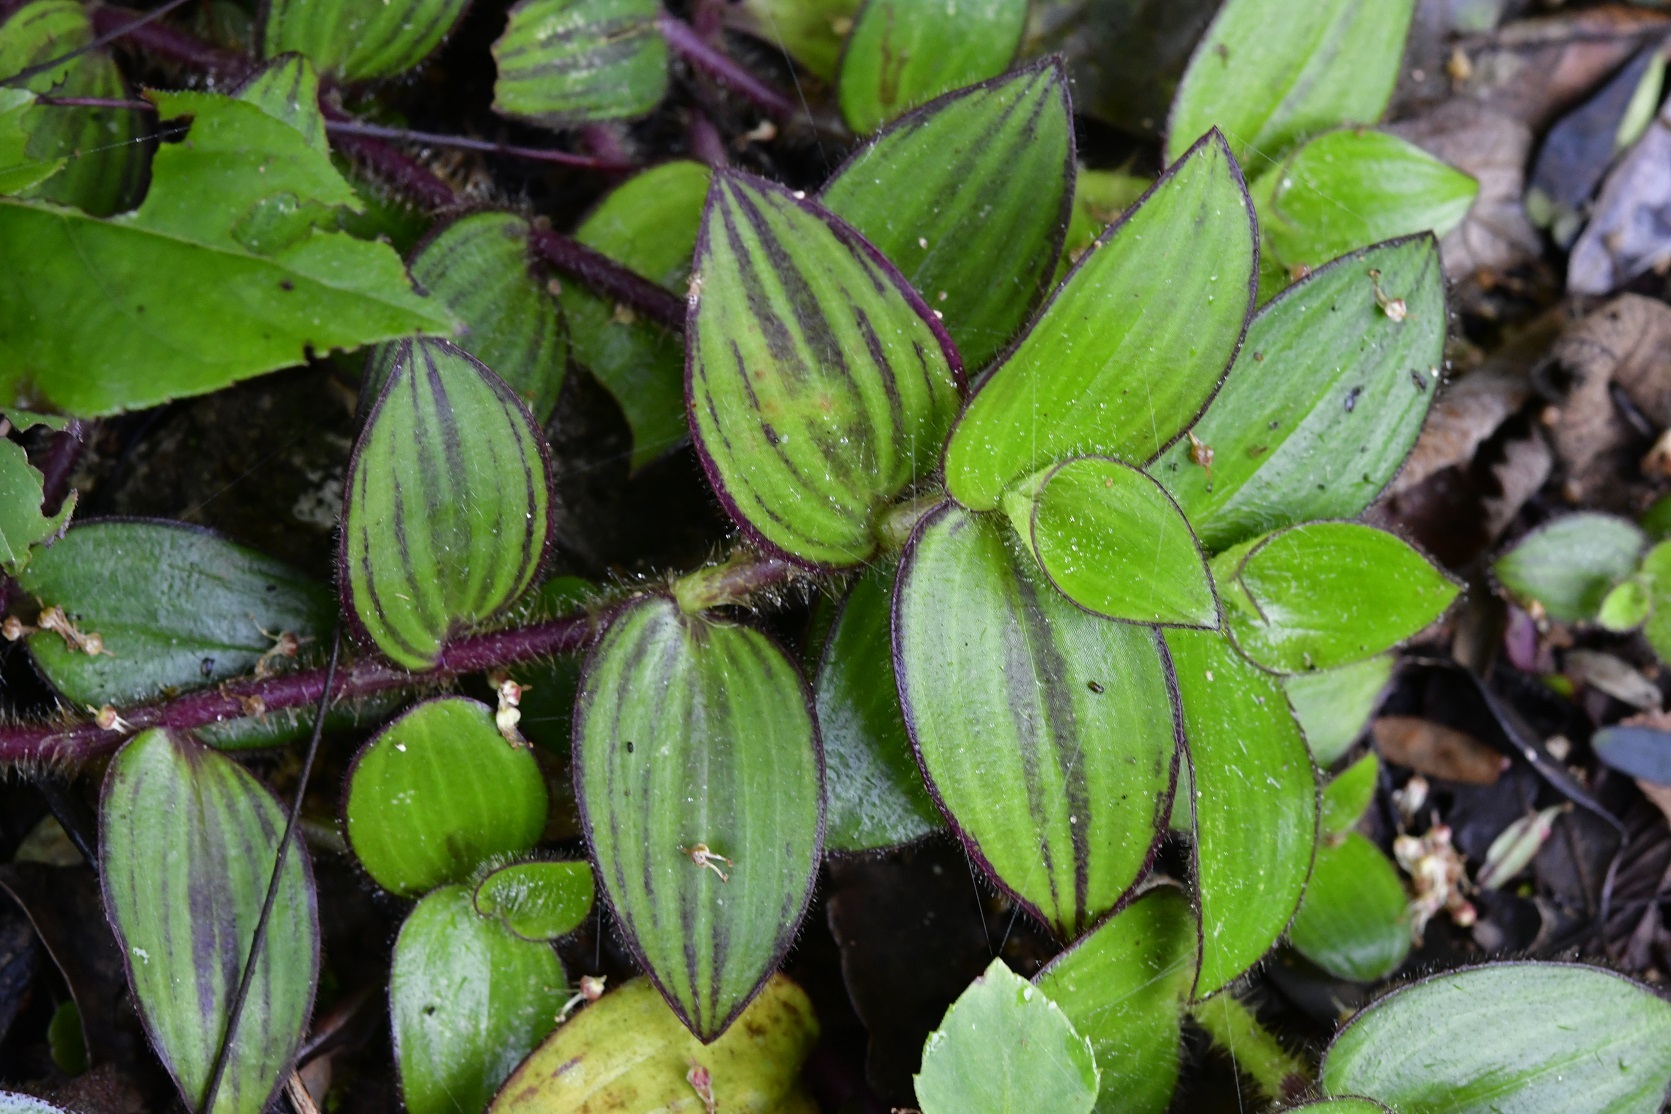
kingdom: Plantae
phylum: Tracheophyta
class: Liliopsida
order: Commelinales
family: Commelinaceae
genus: Tradescantia
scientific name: Tradescantia schippii
